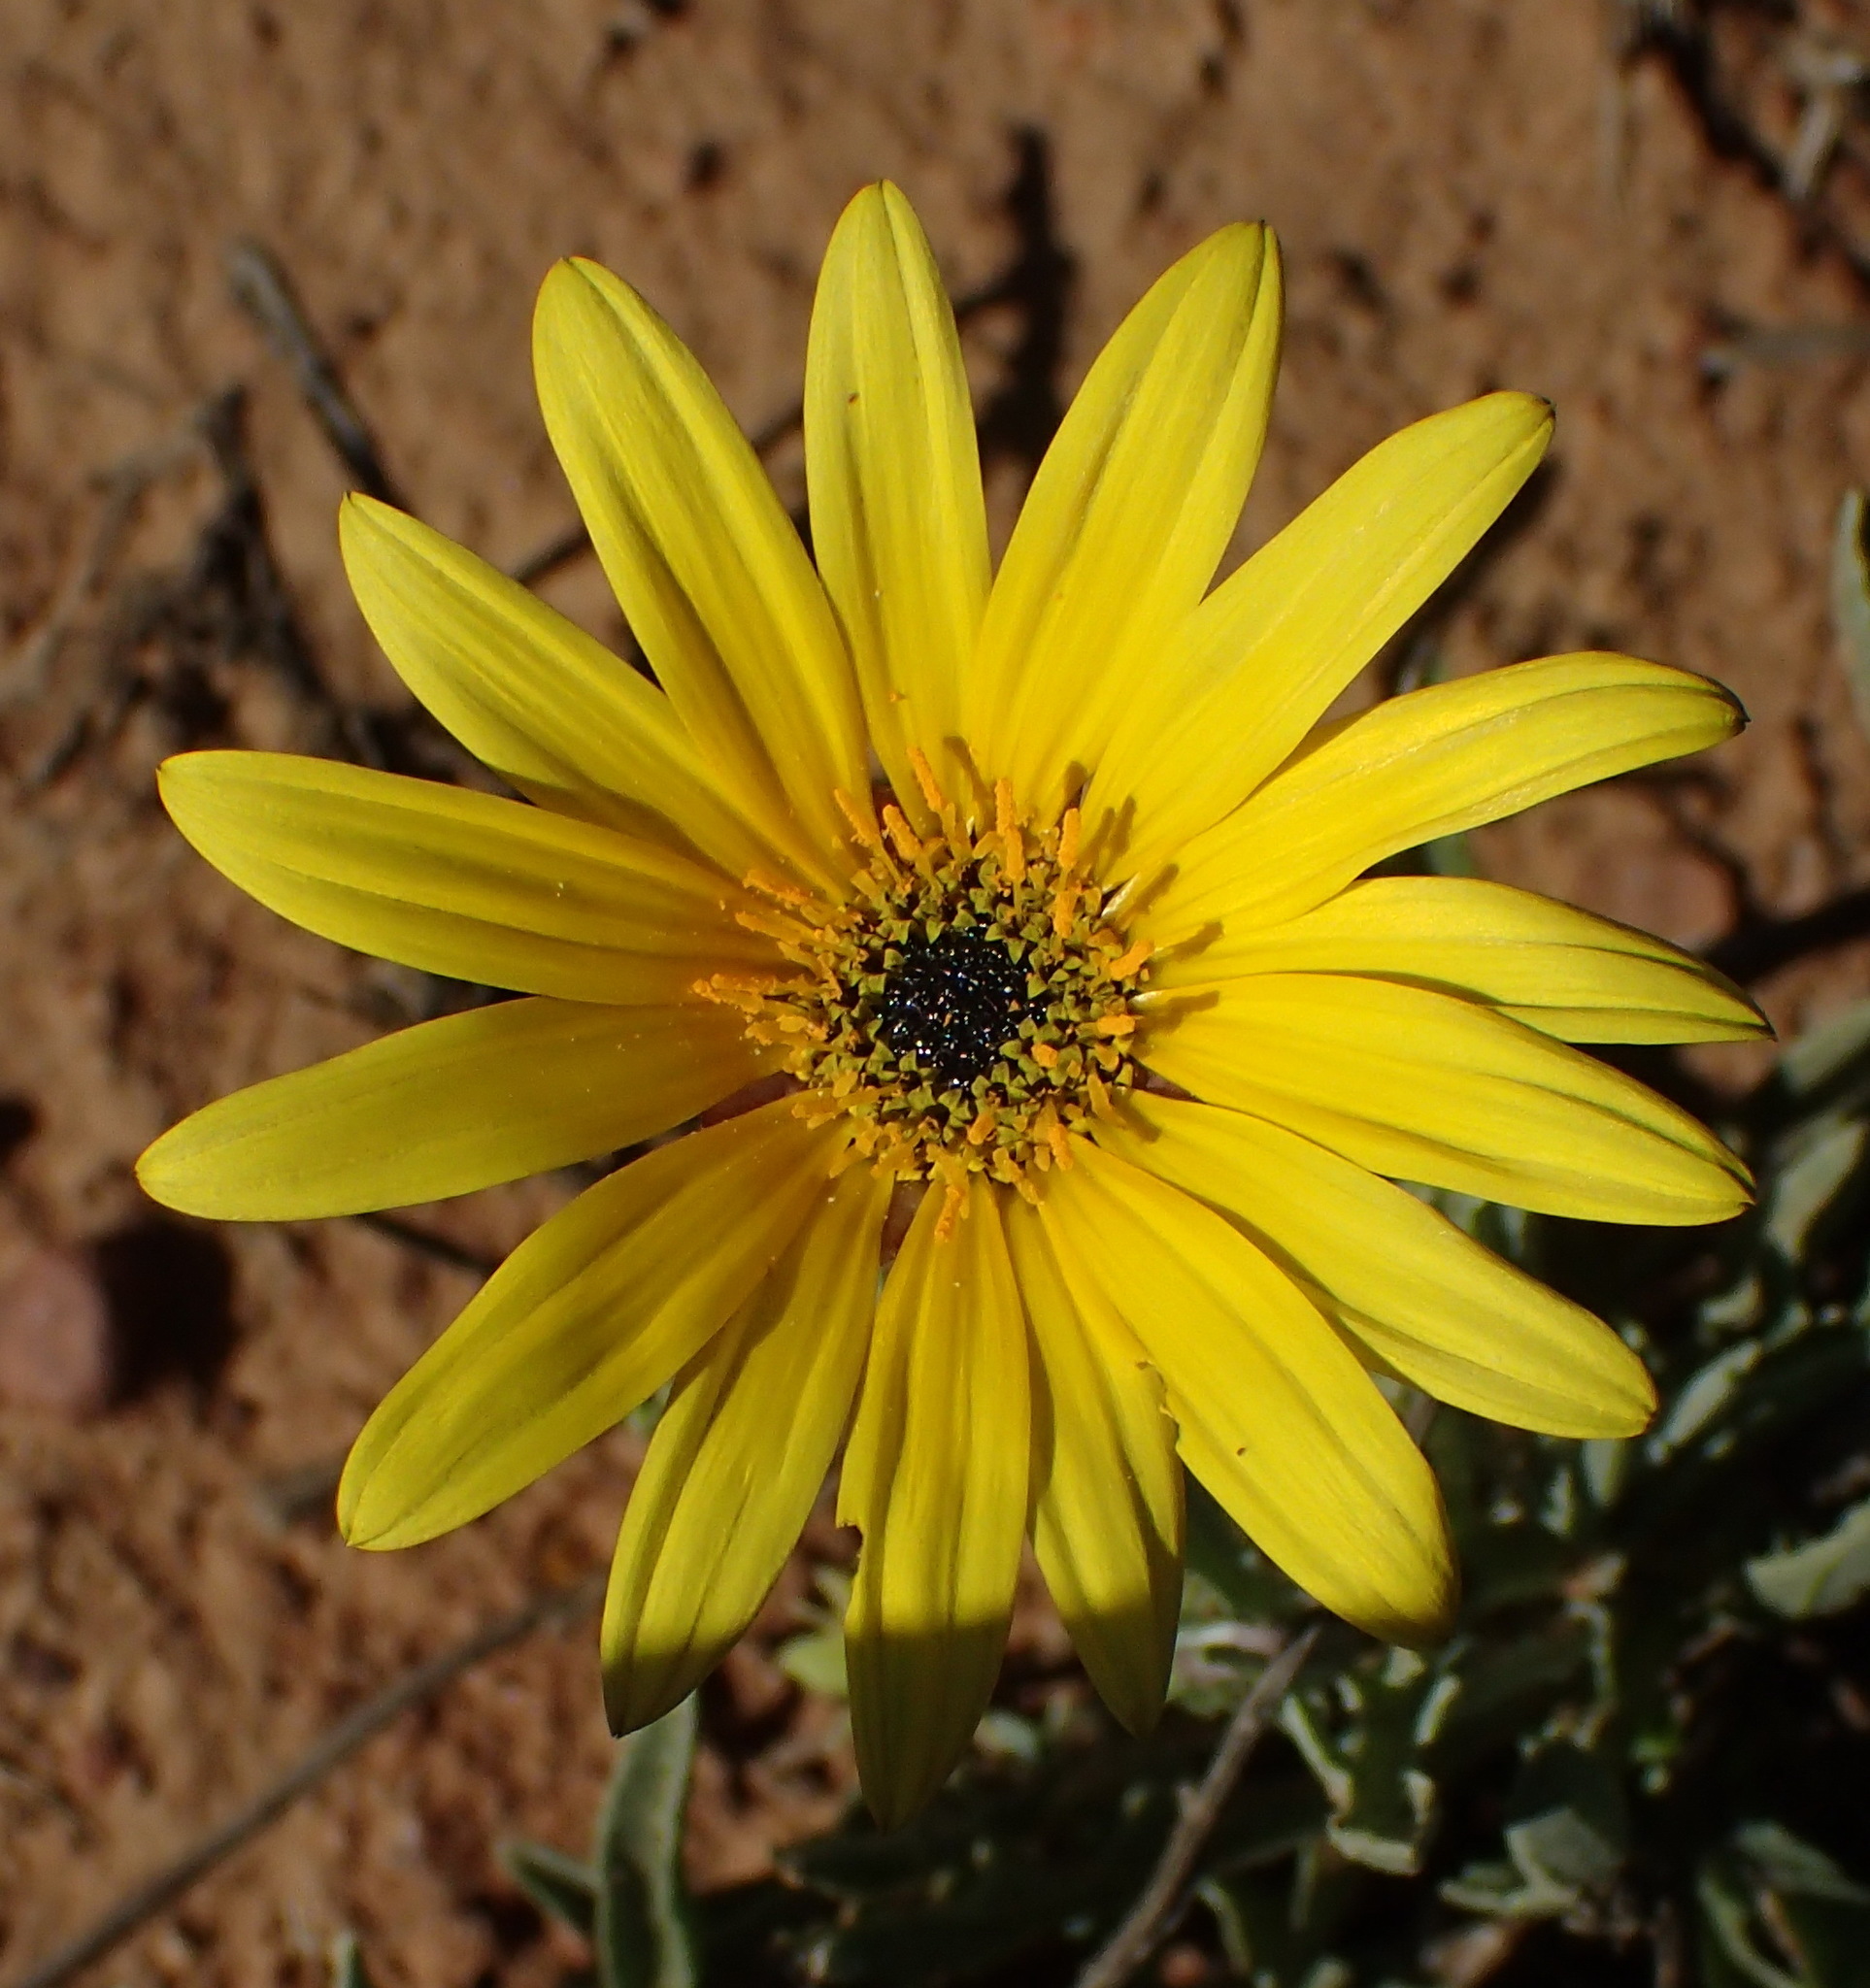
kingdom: Plantae
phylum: Tracheophyta
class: Magnoliopsida
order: Asterales
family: Asteraceae
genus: Arctotis
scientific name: Arctotis lanceolata
